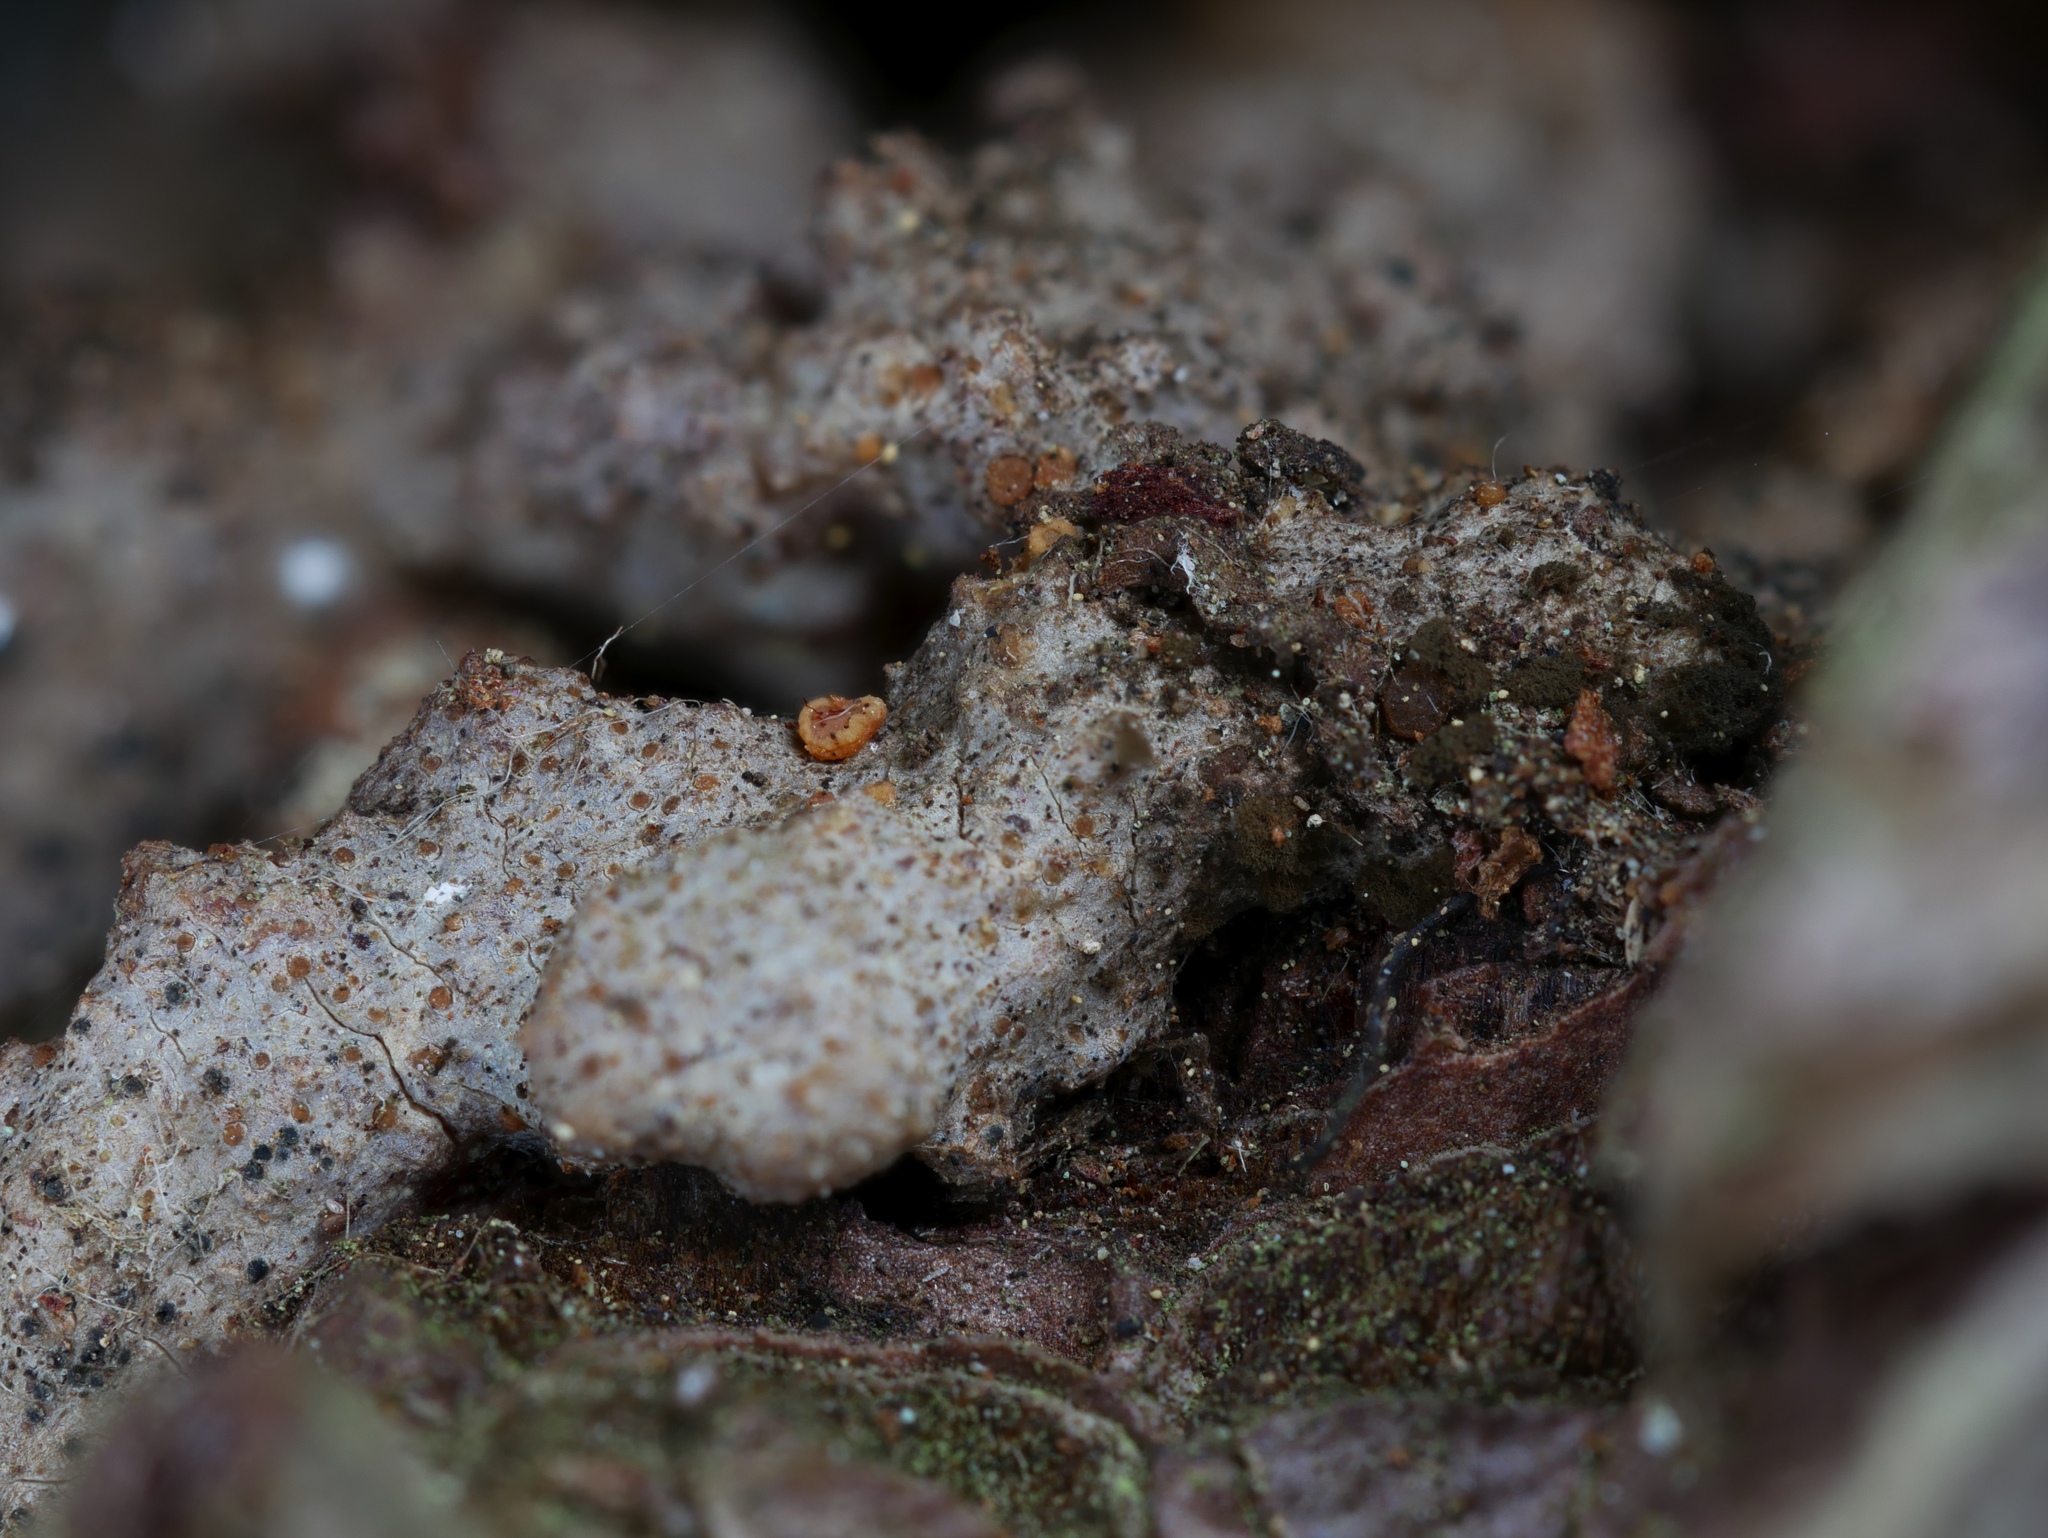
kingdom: Fungi
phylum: Ascomycota
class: Sareomycetes
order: Sareales
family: Sareaceae
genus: Sarea
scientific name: Sarea resinae
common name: Sarea lichen
